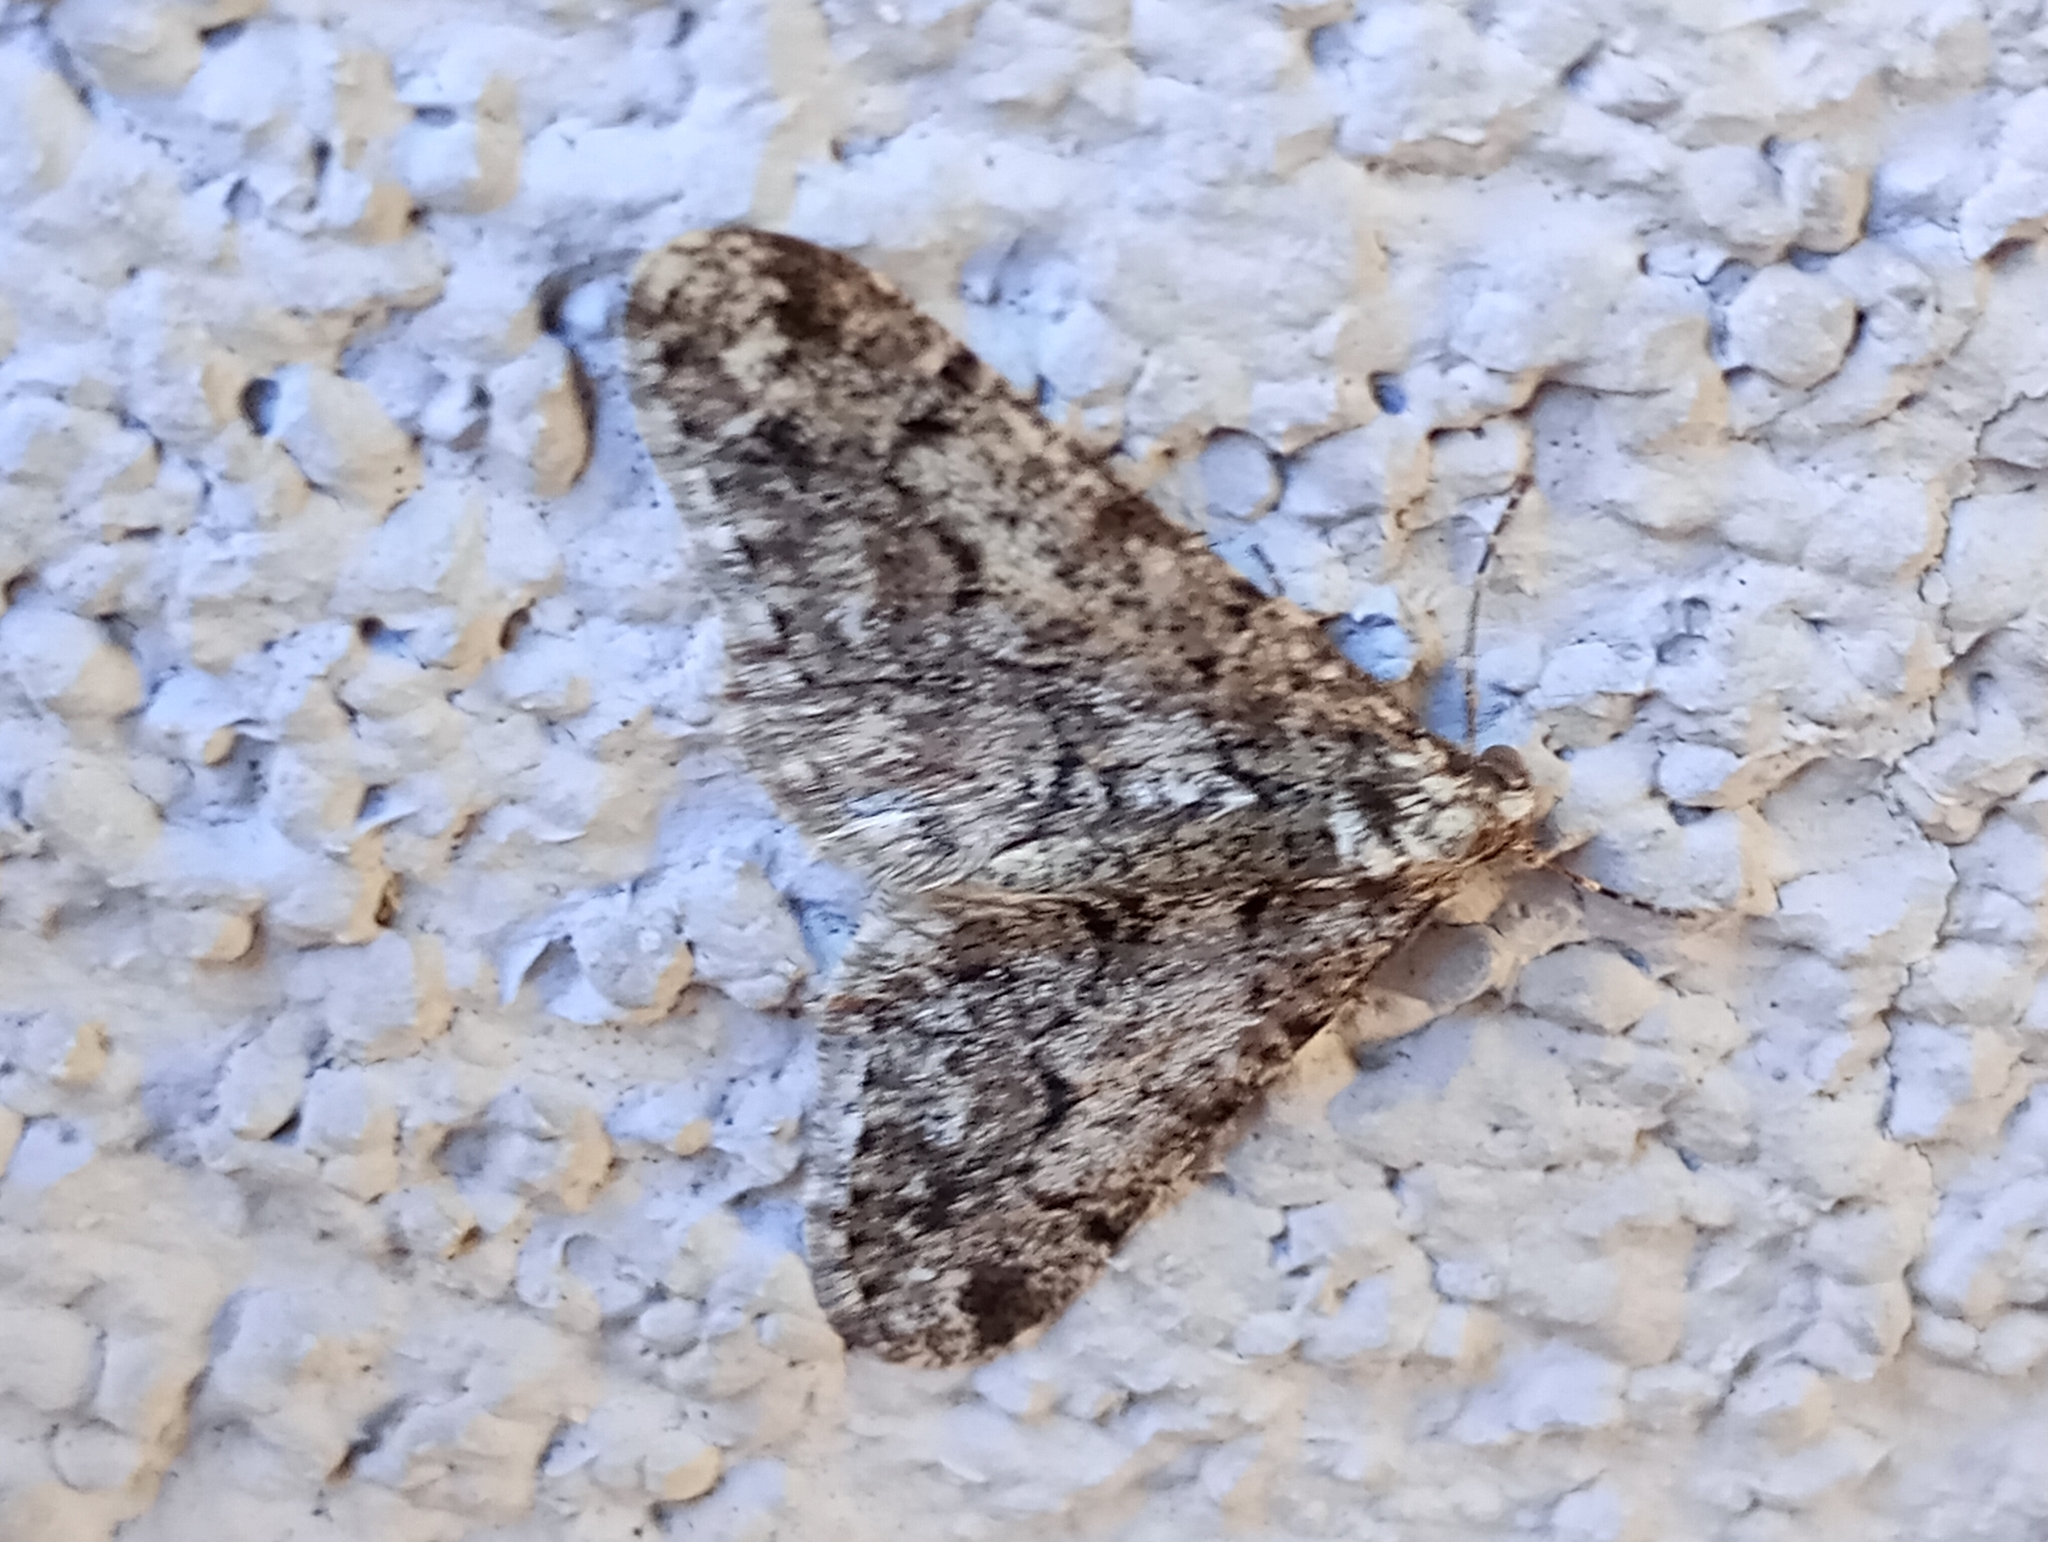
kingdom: Animalia
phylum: Arthropoda
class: Insecta
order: Lepidoptera
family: Geometridae
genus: Agriopis
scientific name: Agriopis leucophaearia
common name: Spring usher
